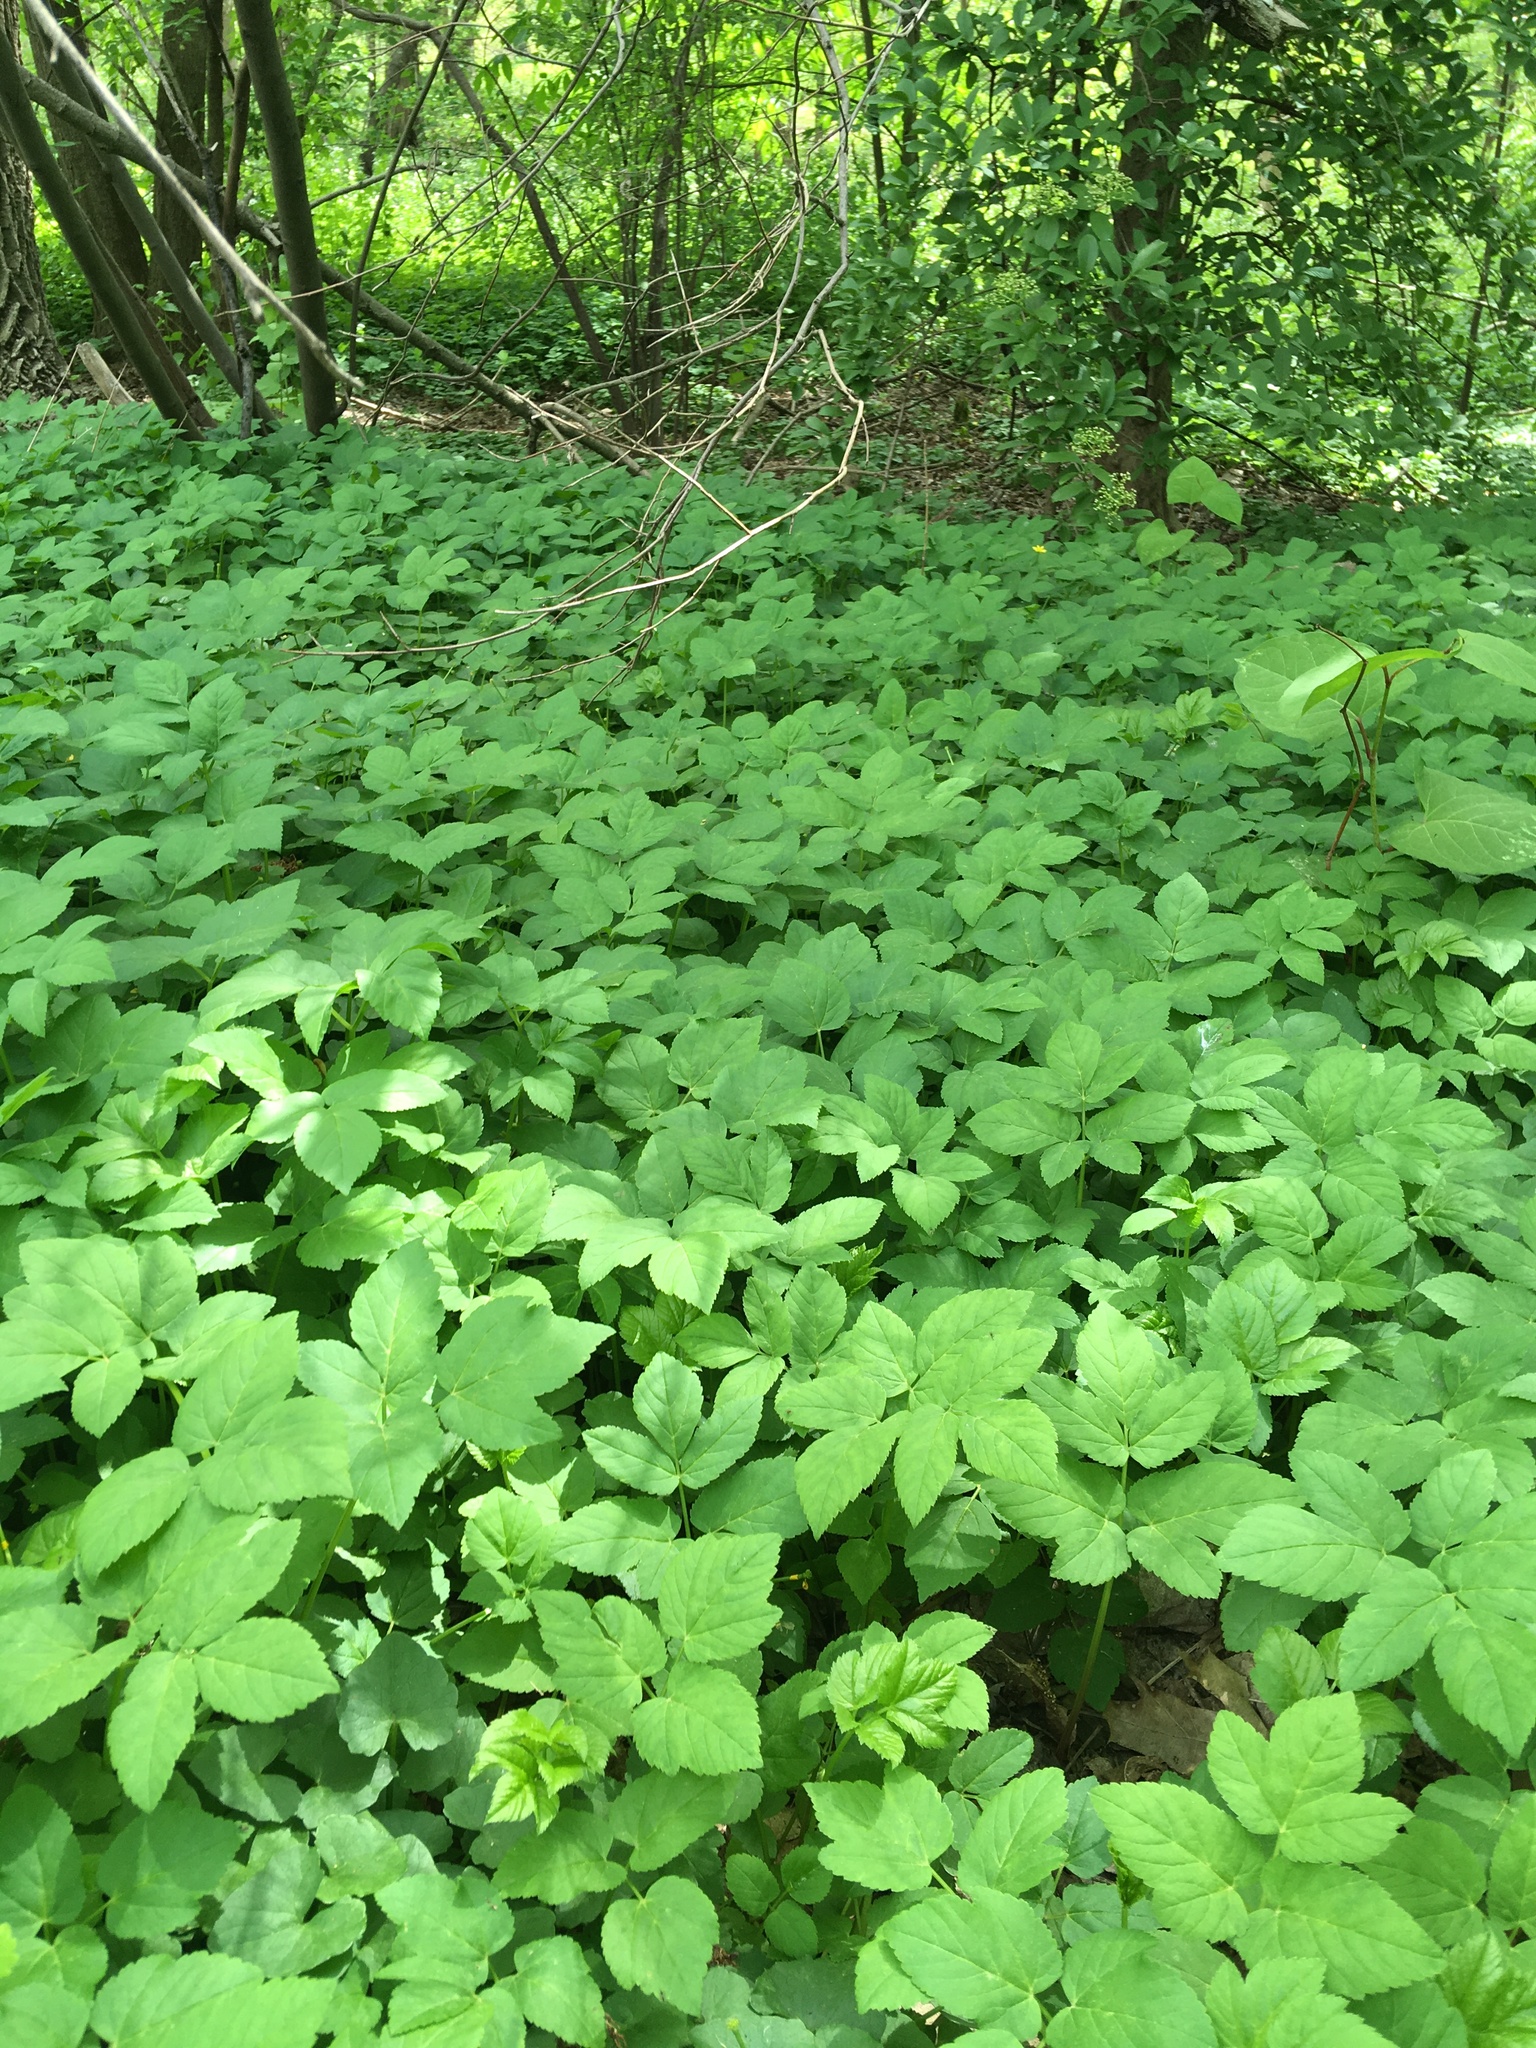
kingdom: Plantae
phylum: Tracheophyta
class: Magnoliopsida
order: Apiales
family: Apiaceae
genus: Aegopodium
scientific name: Aegopodium podagraria
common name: Ground-elder
